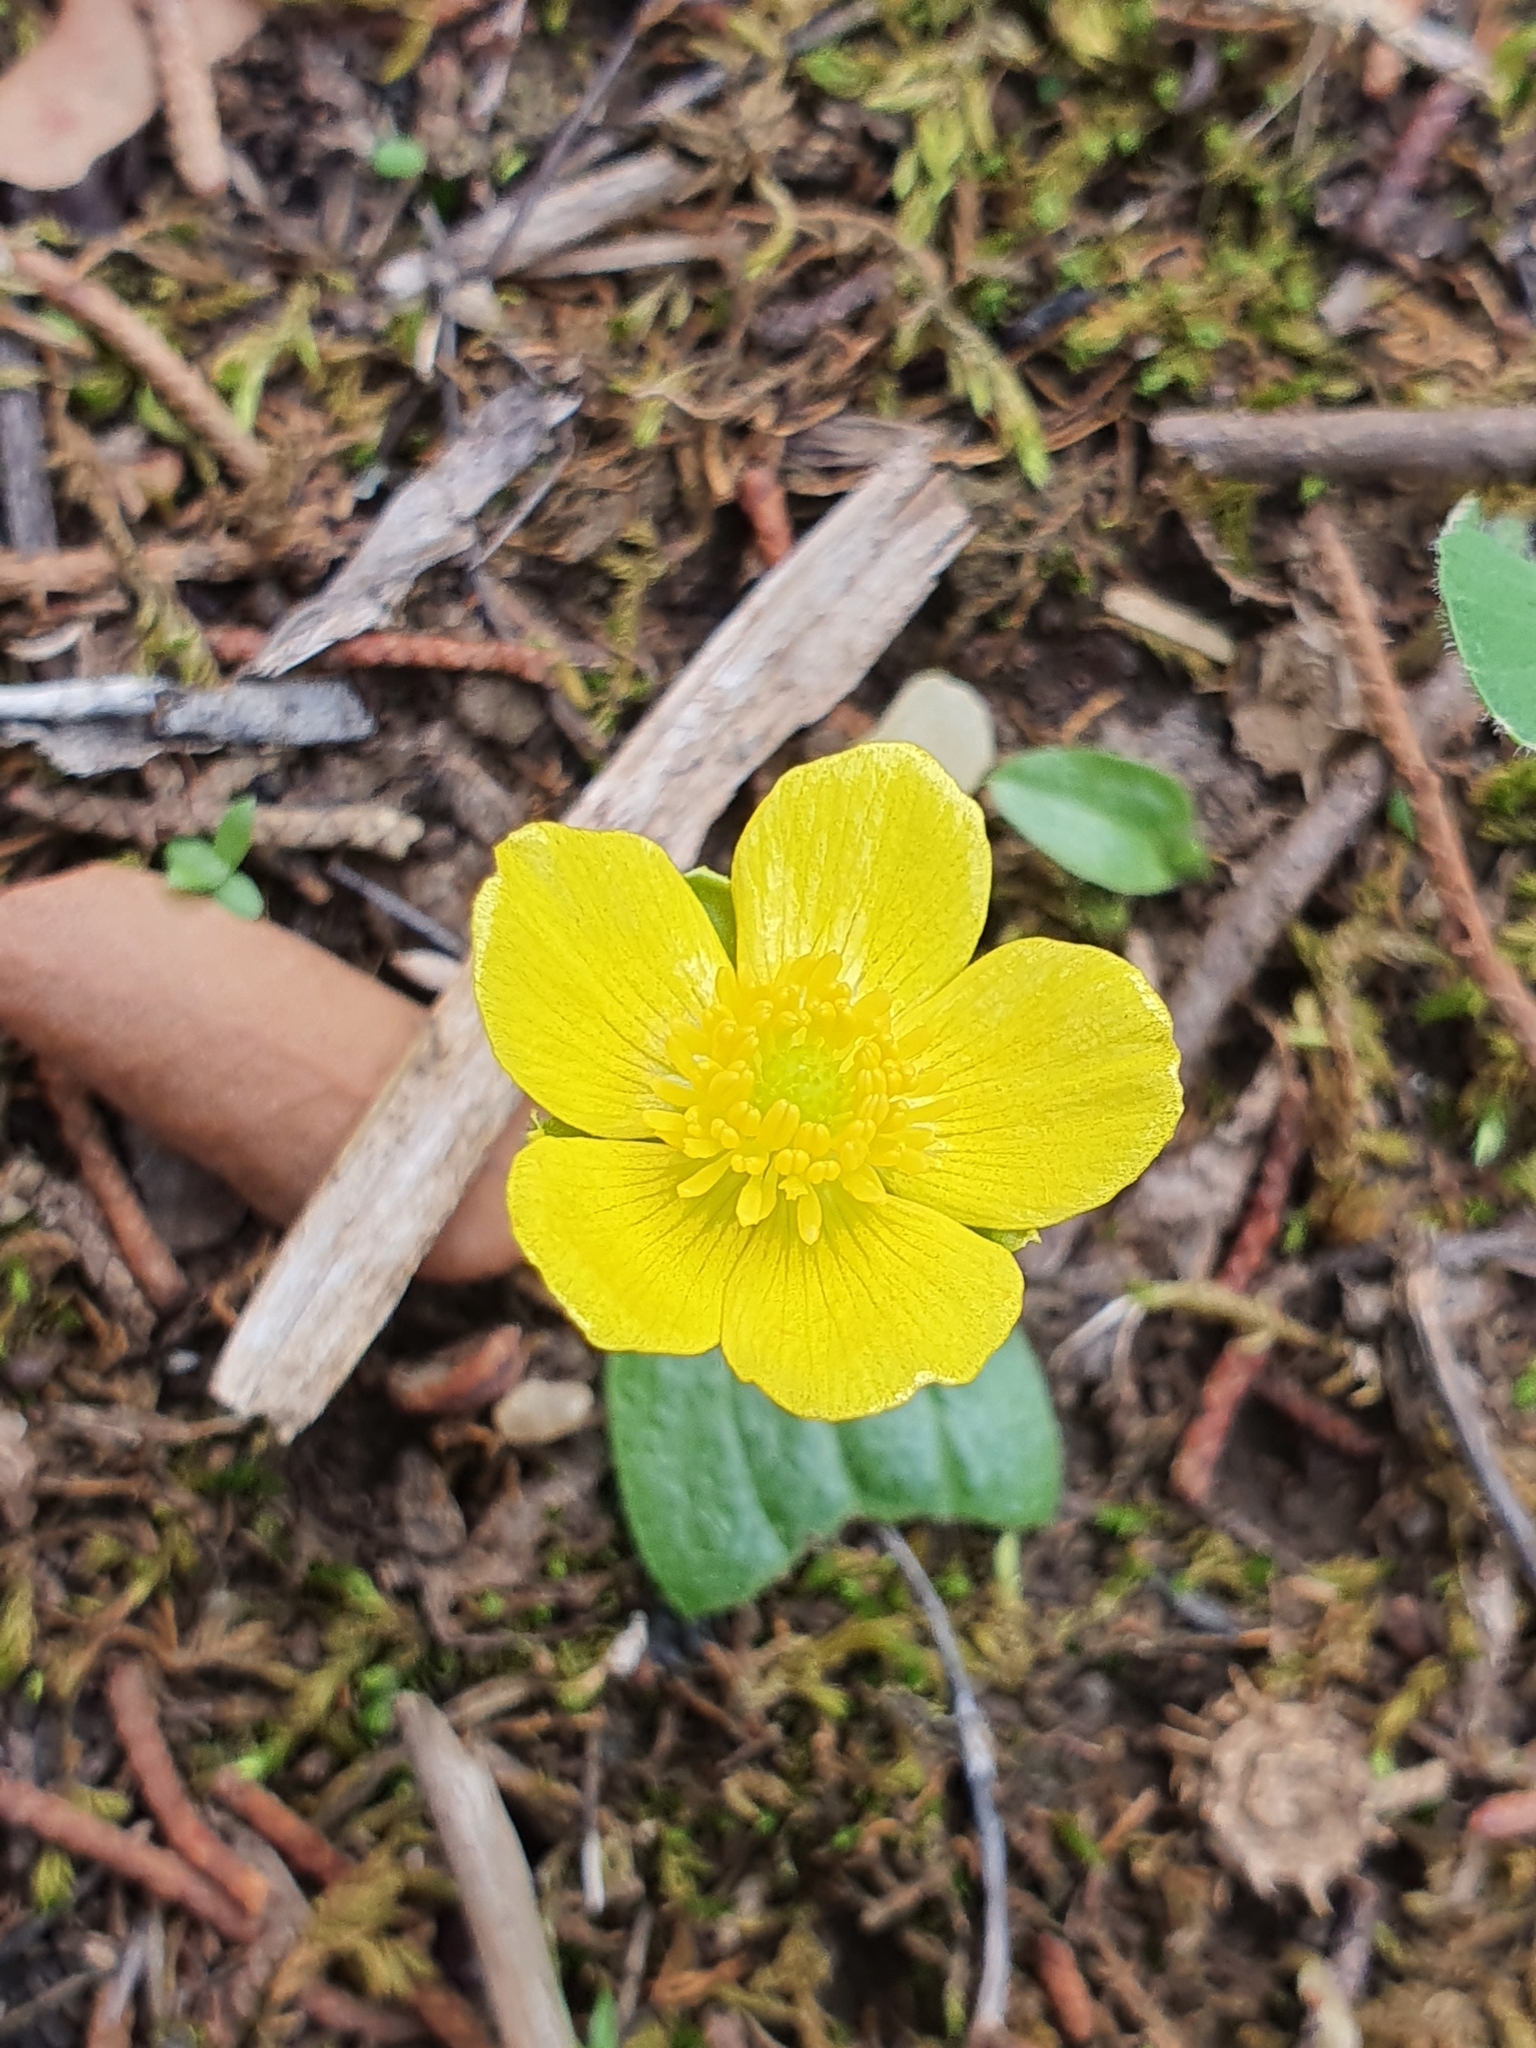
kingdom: Plantae
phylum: Tracheophyta
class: Magnoliopsida
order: Ranunculales
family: Ranunculaceae
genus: Ranunculus
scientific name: Ranunculus bullatus
